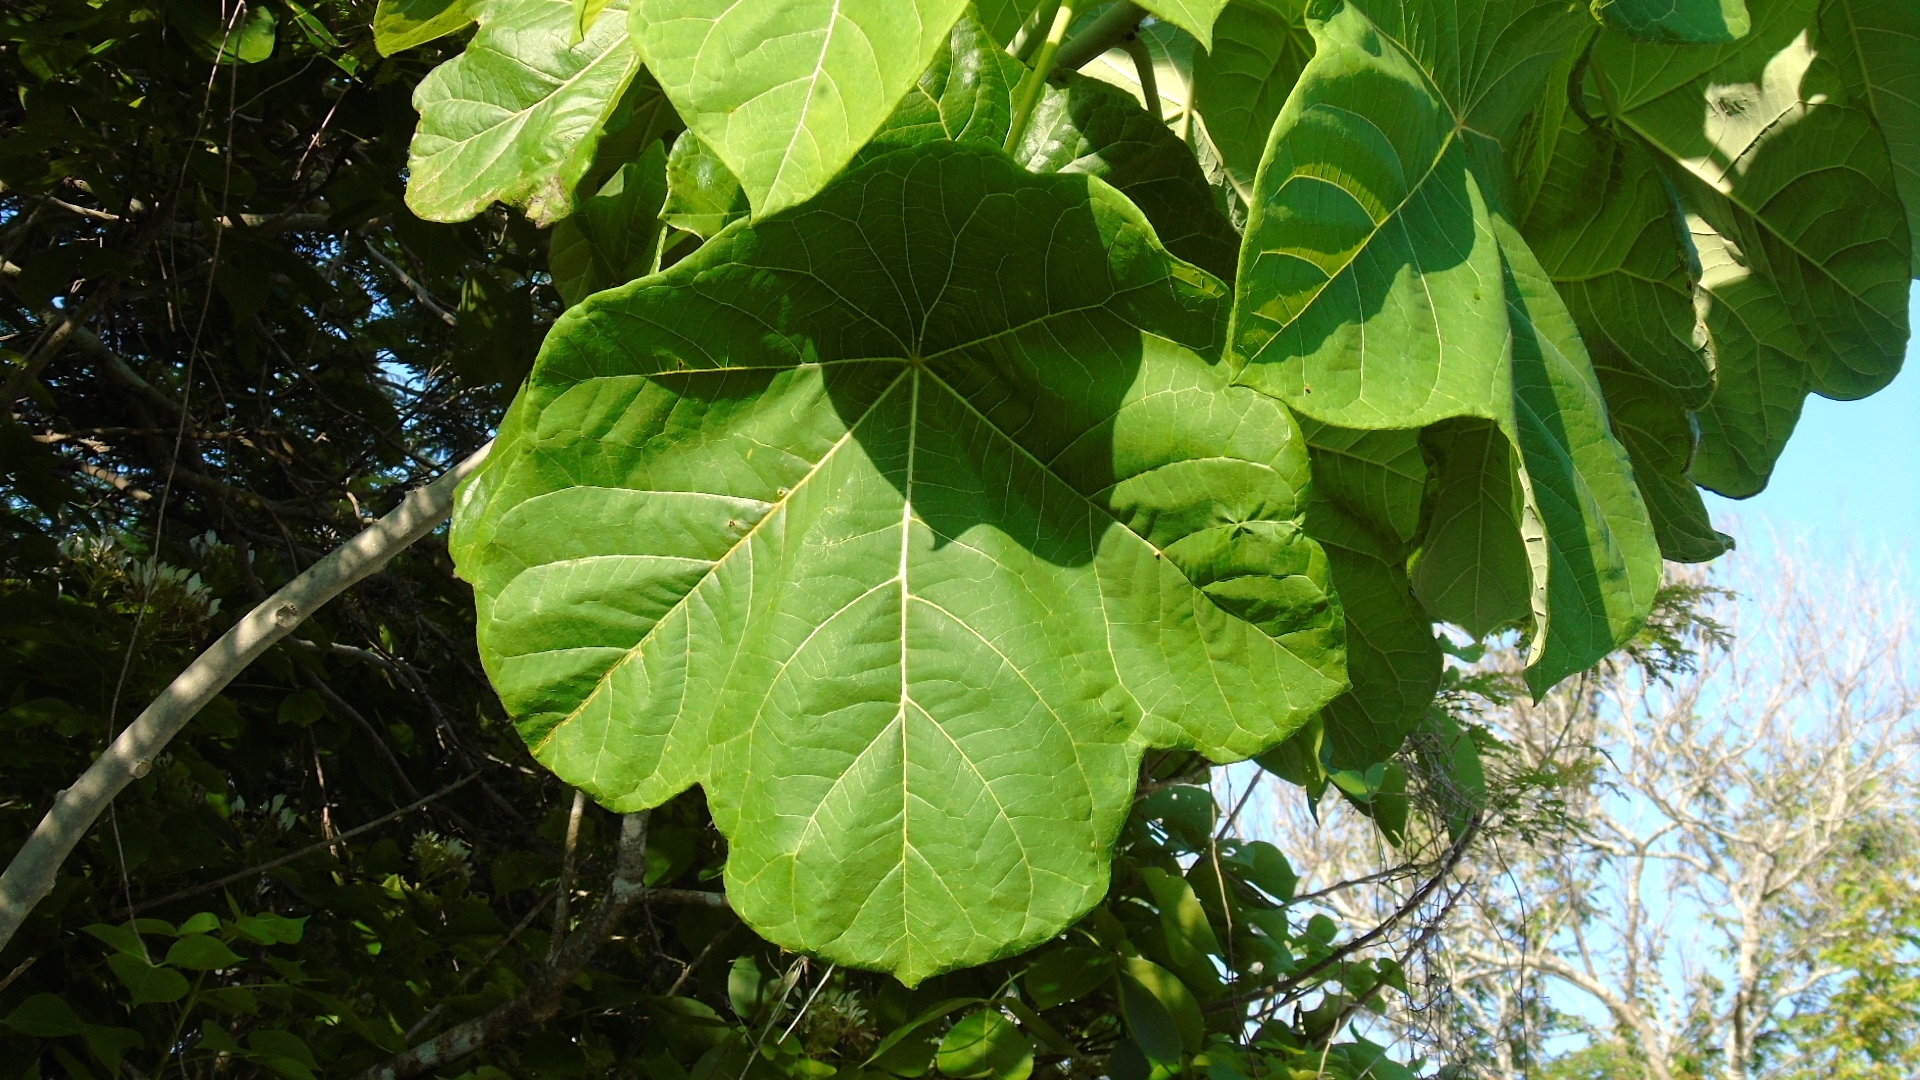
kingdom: Plantae
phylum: Tracheophyta
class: Magnoliopsida
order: Malpighiales
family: Euphorbiaceae
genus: Jatropha
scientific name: Jatropha peltata
